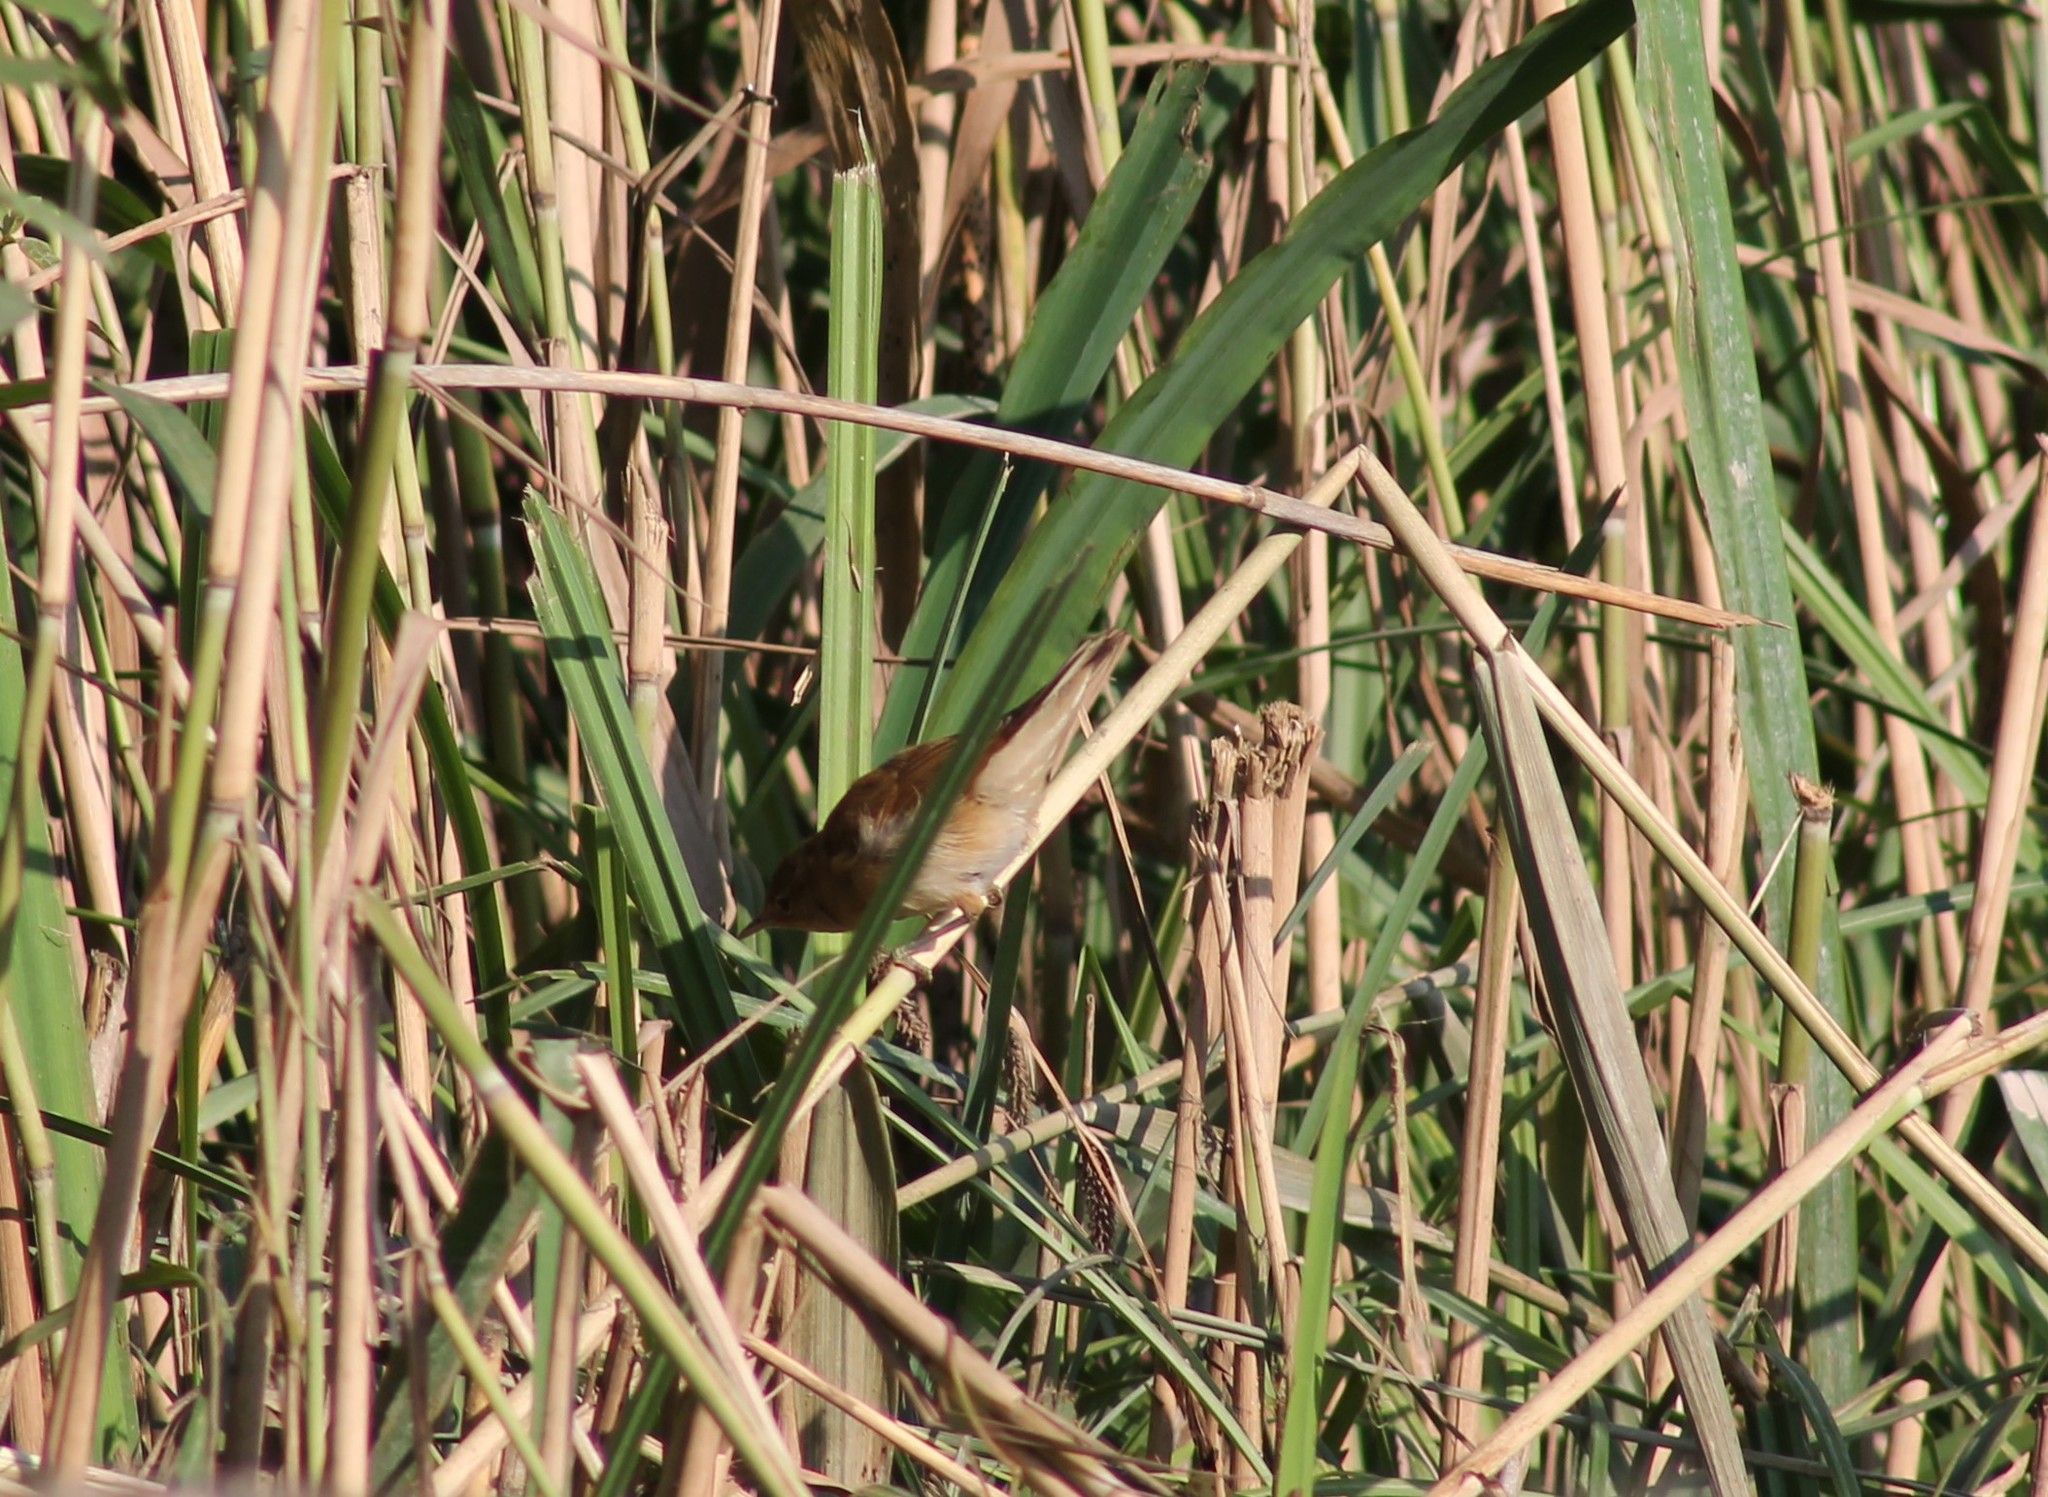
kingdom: Animalia
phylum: Chordata
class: Aves
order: Passeriformes
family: Acrocephalidae
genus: Acrocephalus
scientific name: Acrocephalus scirpaceus
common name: Eurasian reed warbler
